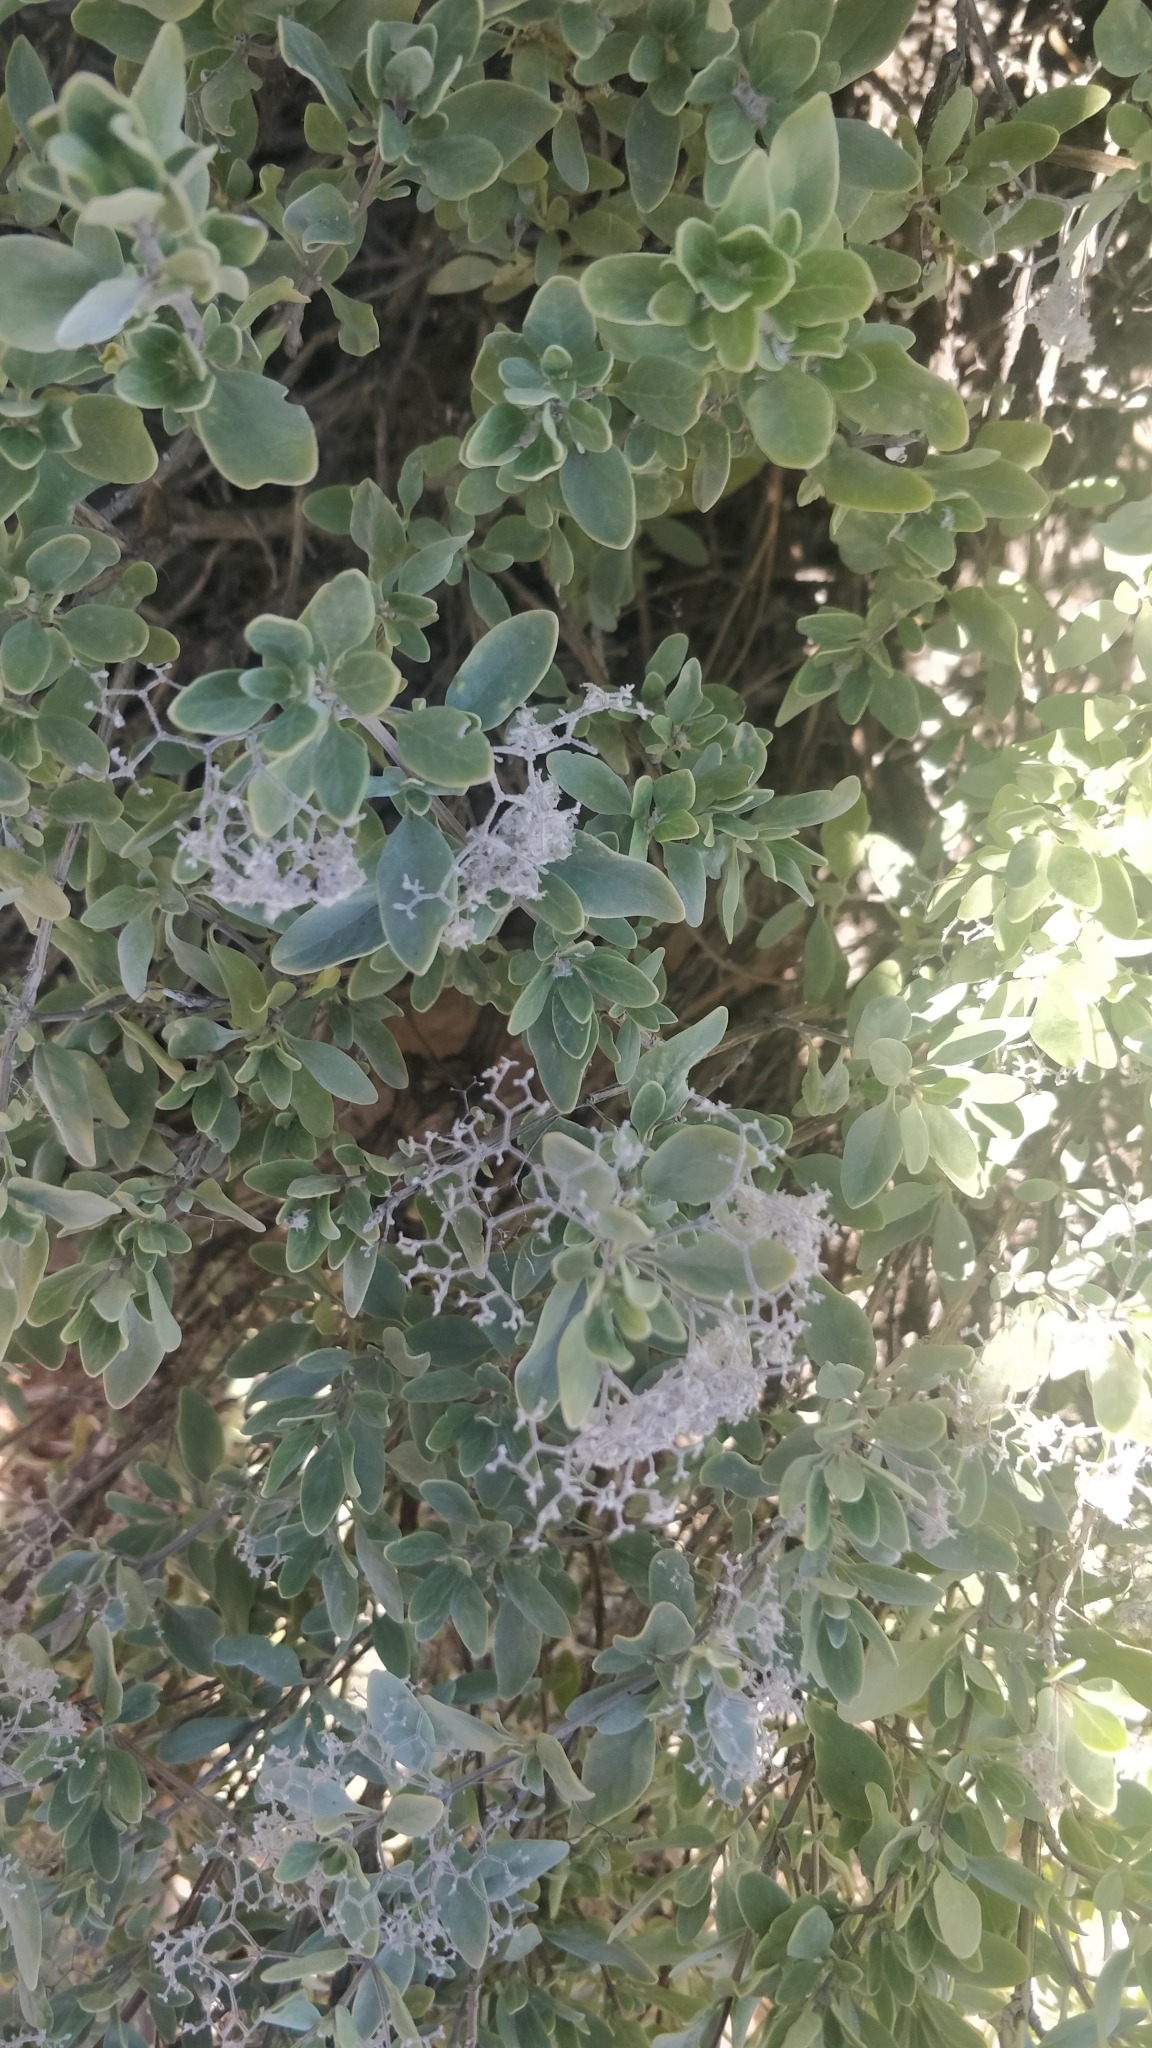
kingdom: Plantae
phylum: Tracheophyta
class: Magnoliopsida
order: Lamiales
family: Lamiaceae
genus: Bystropogon
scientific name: Bystropogon origanifolius
